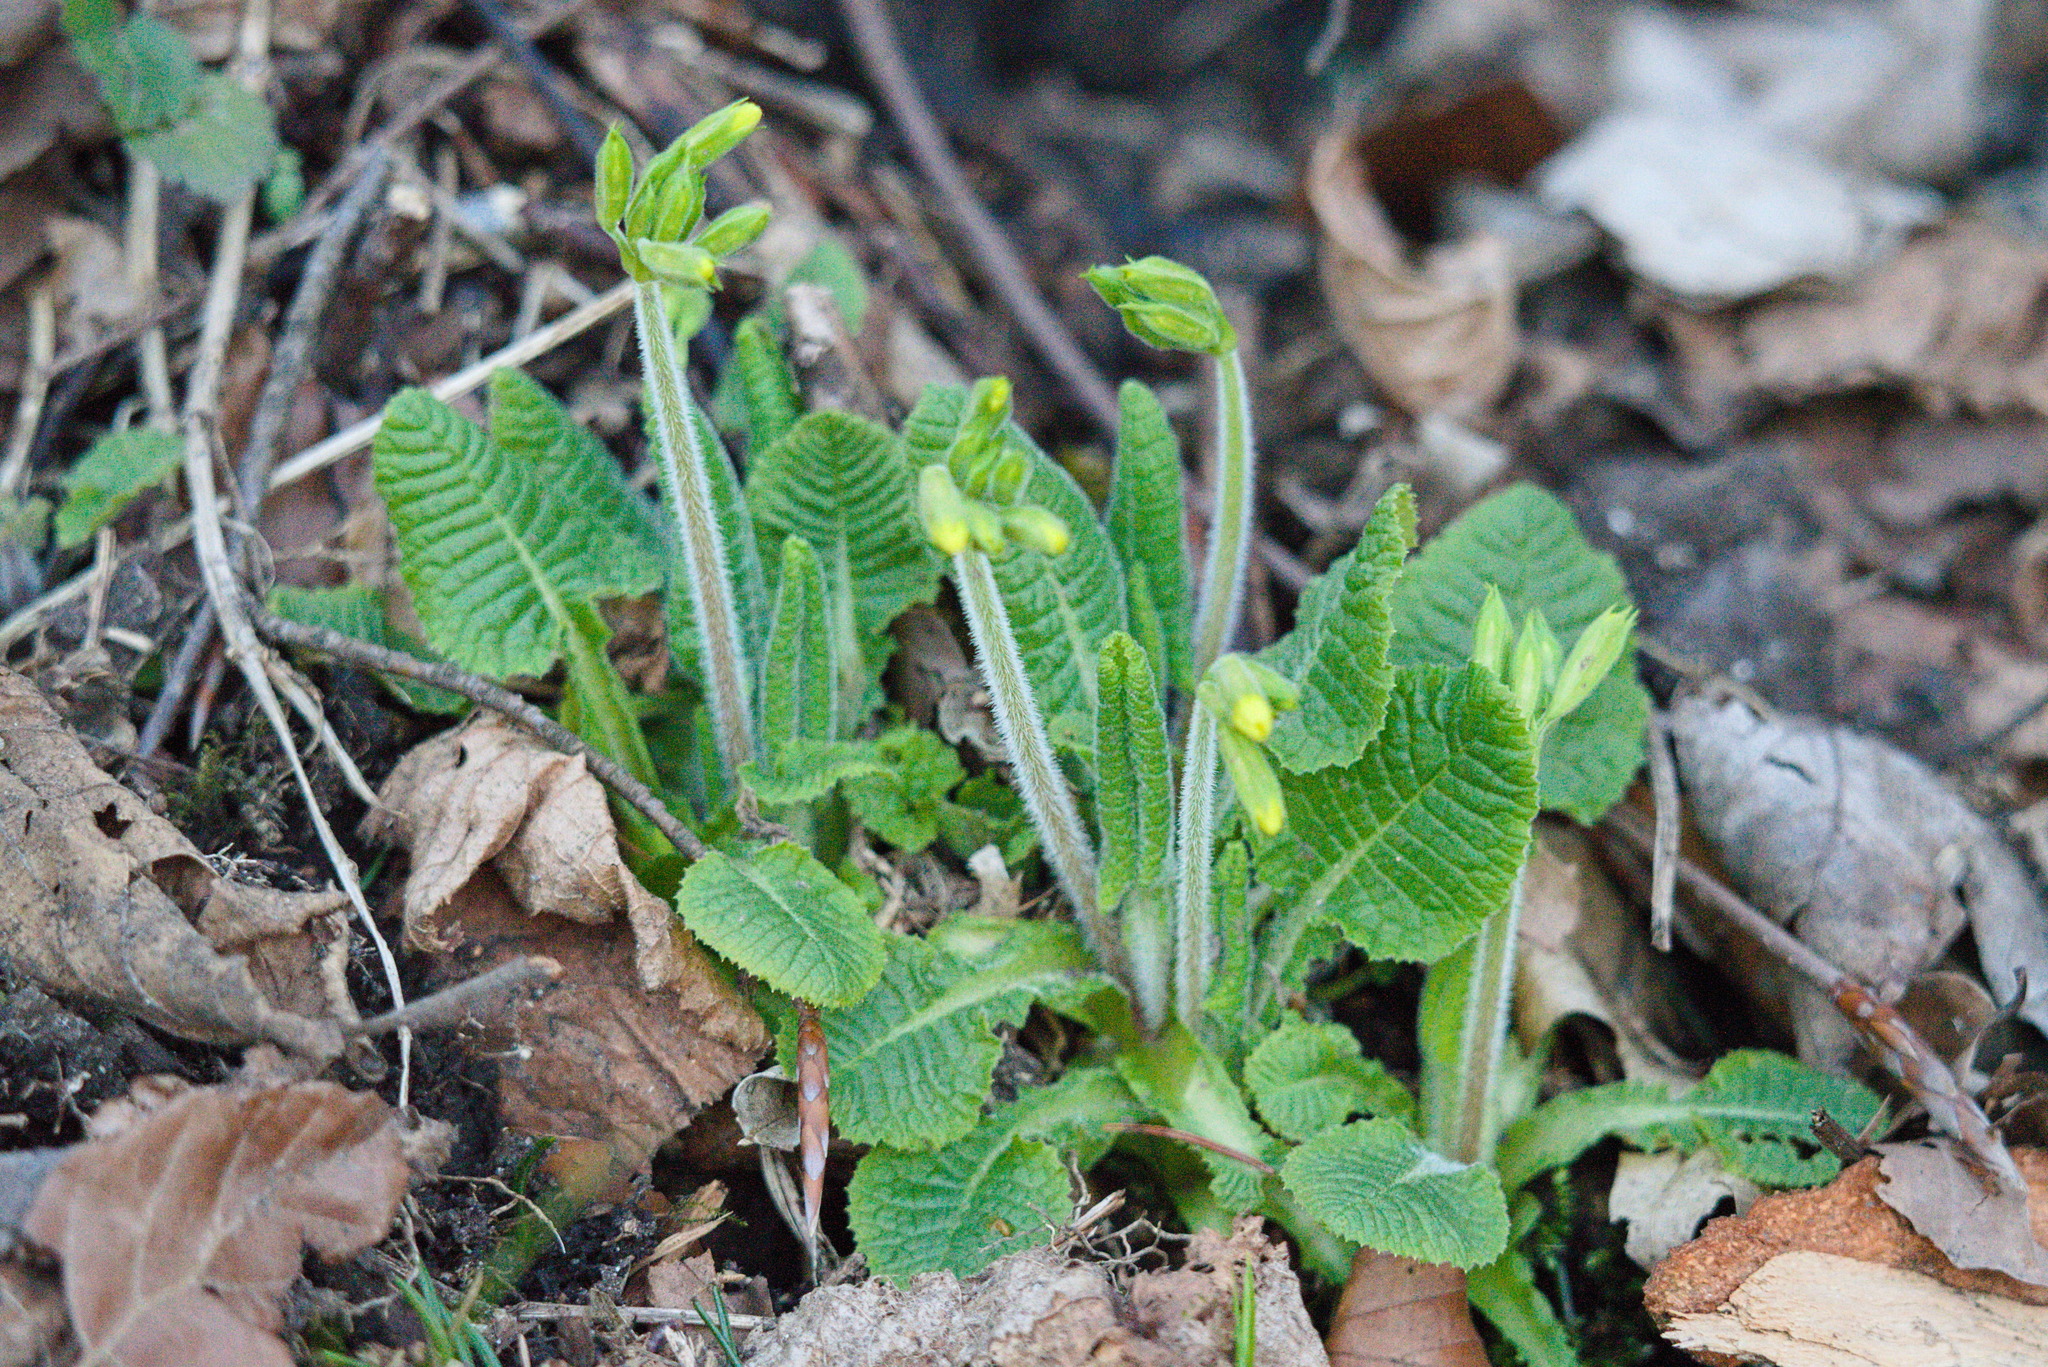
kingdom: Plantae
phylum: Tracheophyta
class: Magnoliopsida
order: Ericales
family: Primulaceae
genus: Primula
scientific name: Primula elatior
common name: Oxlip
